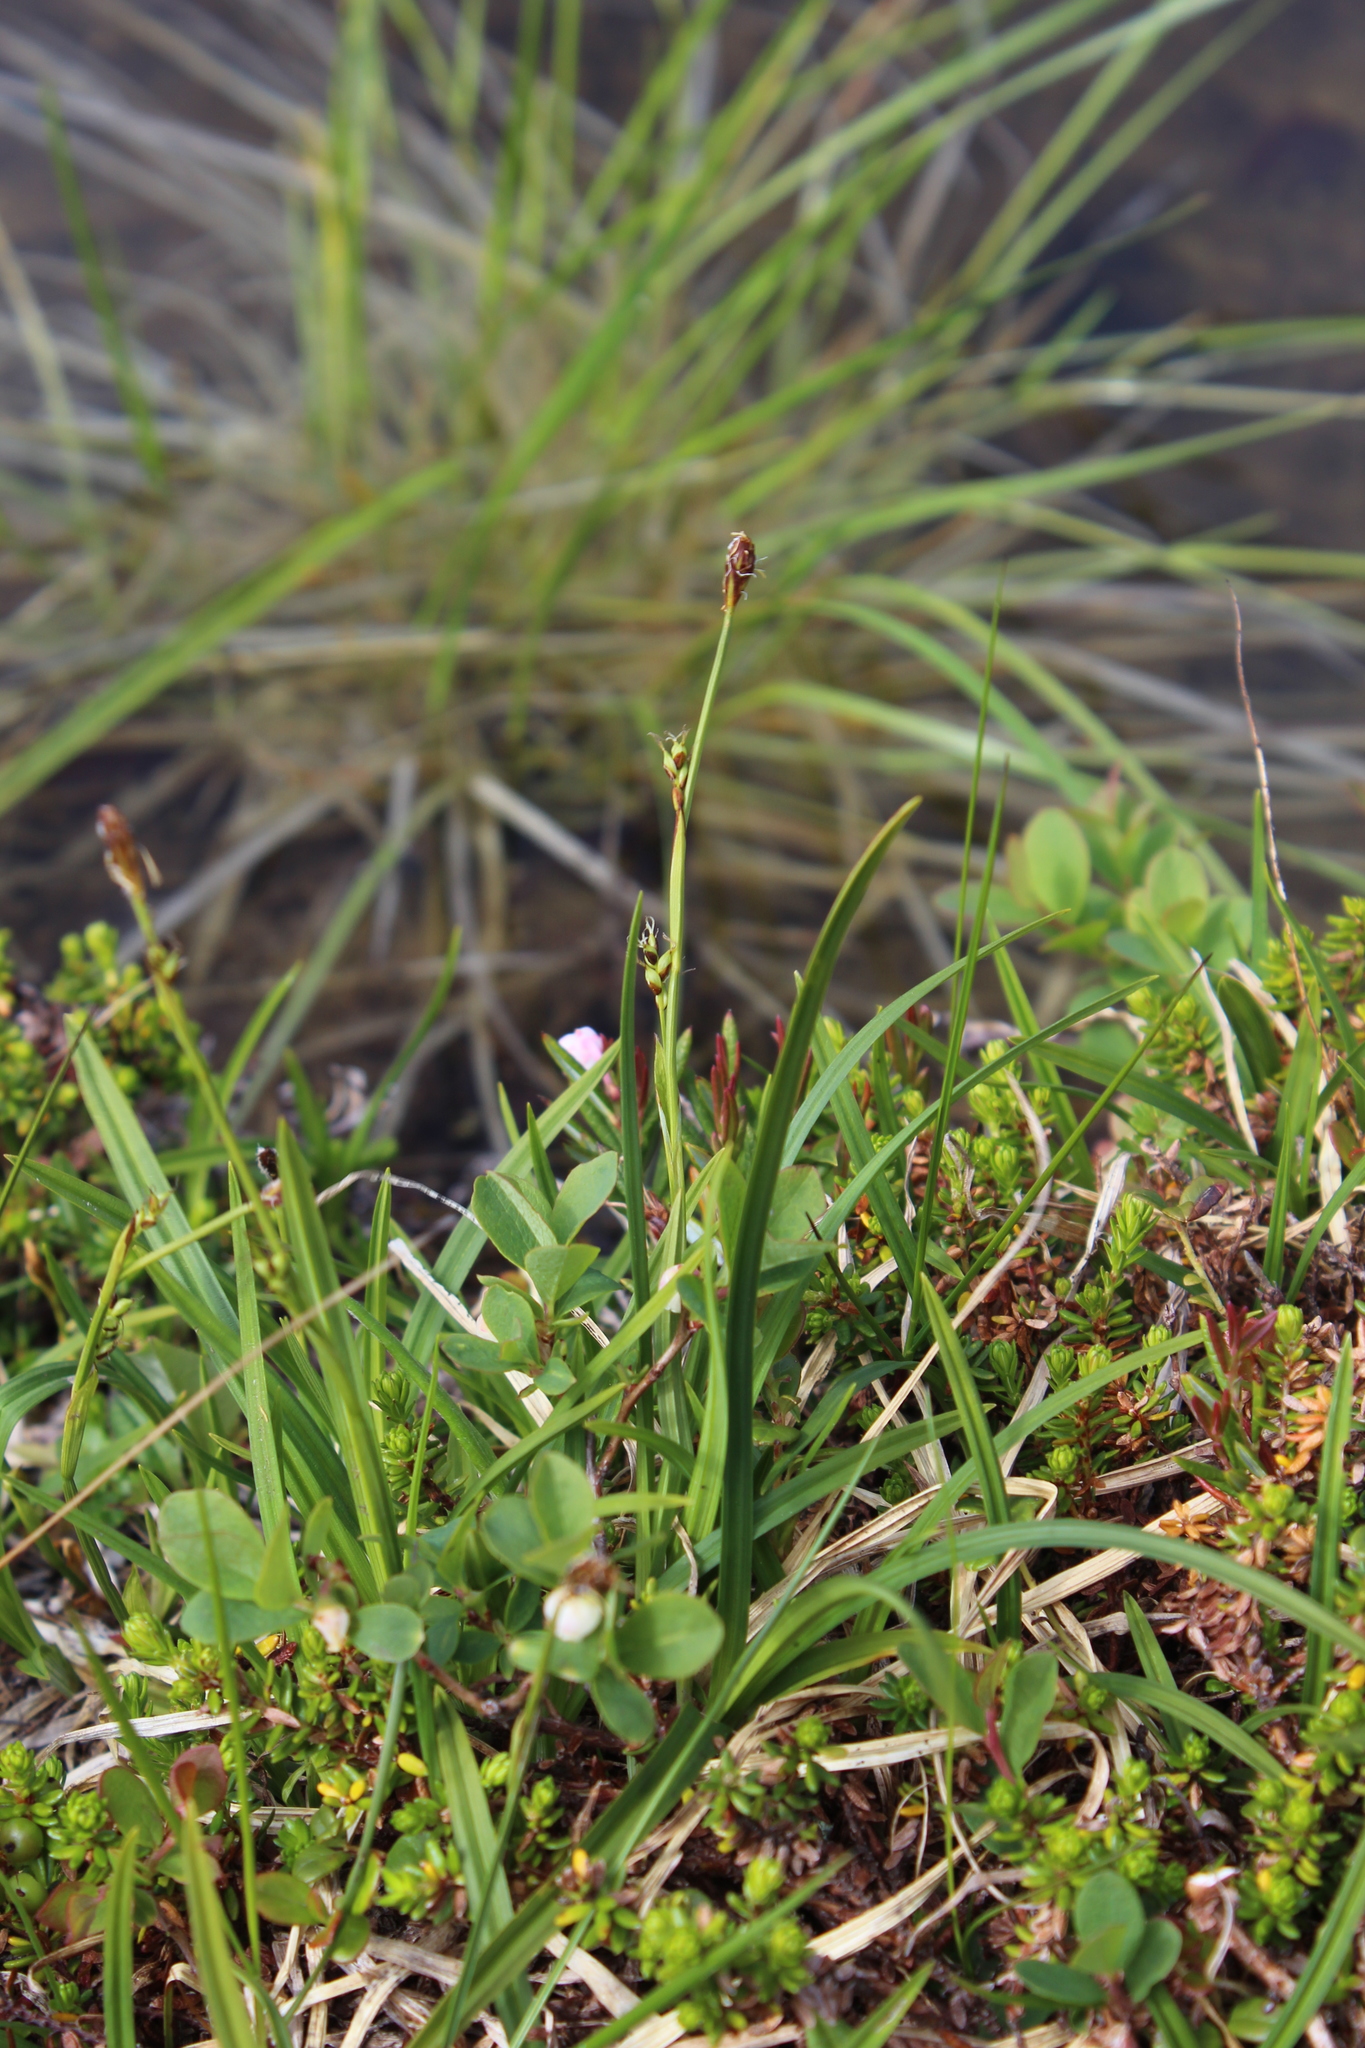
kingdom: Plantae
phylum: Tracheophyta
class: Liliopsida
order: Poales
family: Cyperaceae
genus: Carex
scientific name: Carex vaginata
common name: Sheathed sedge
